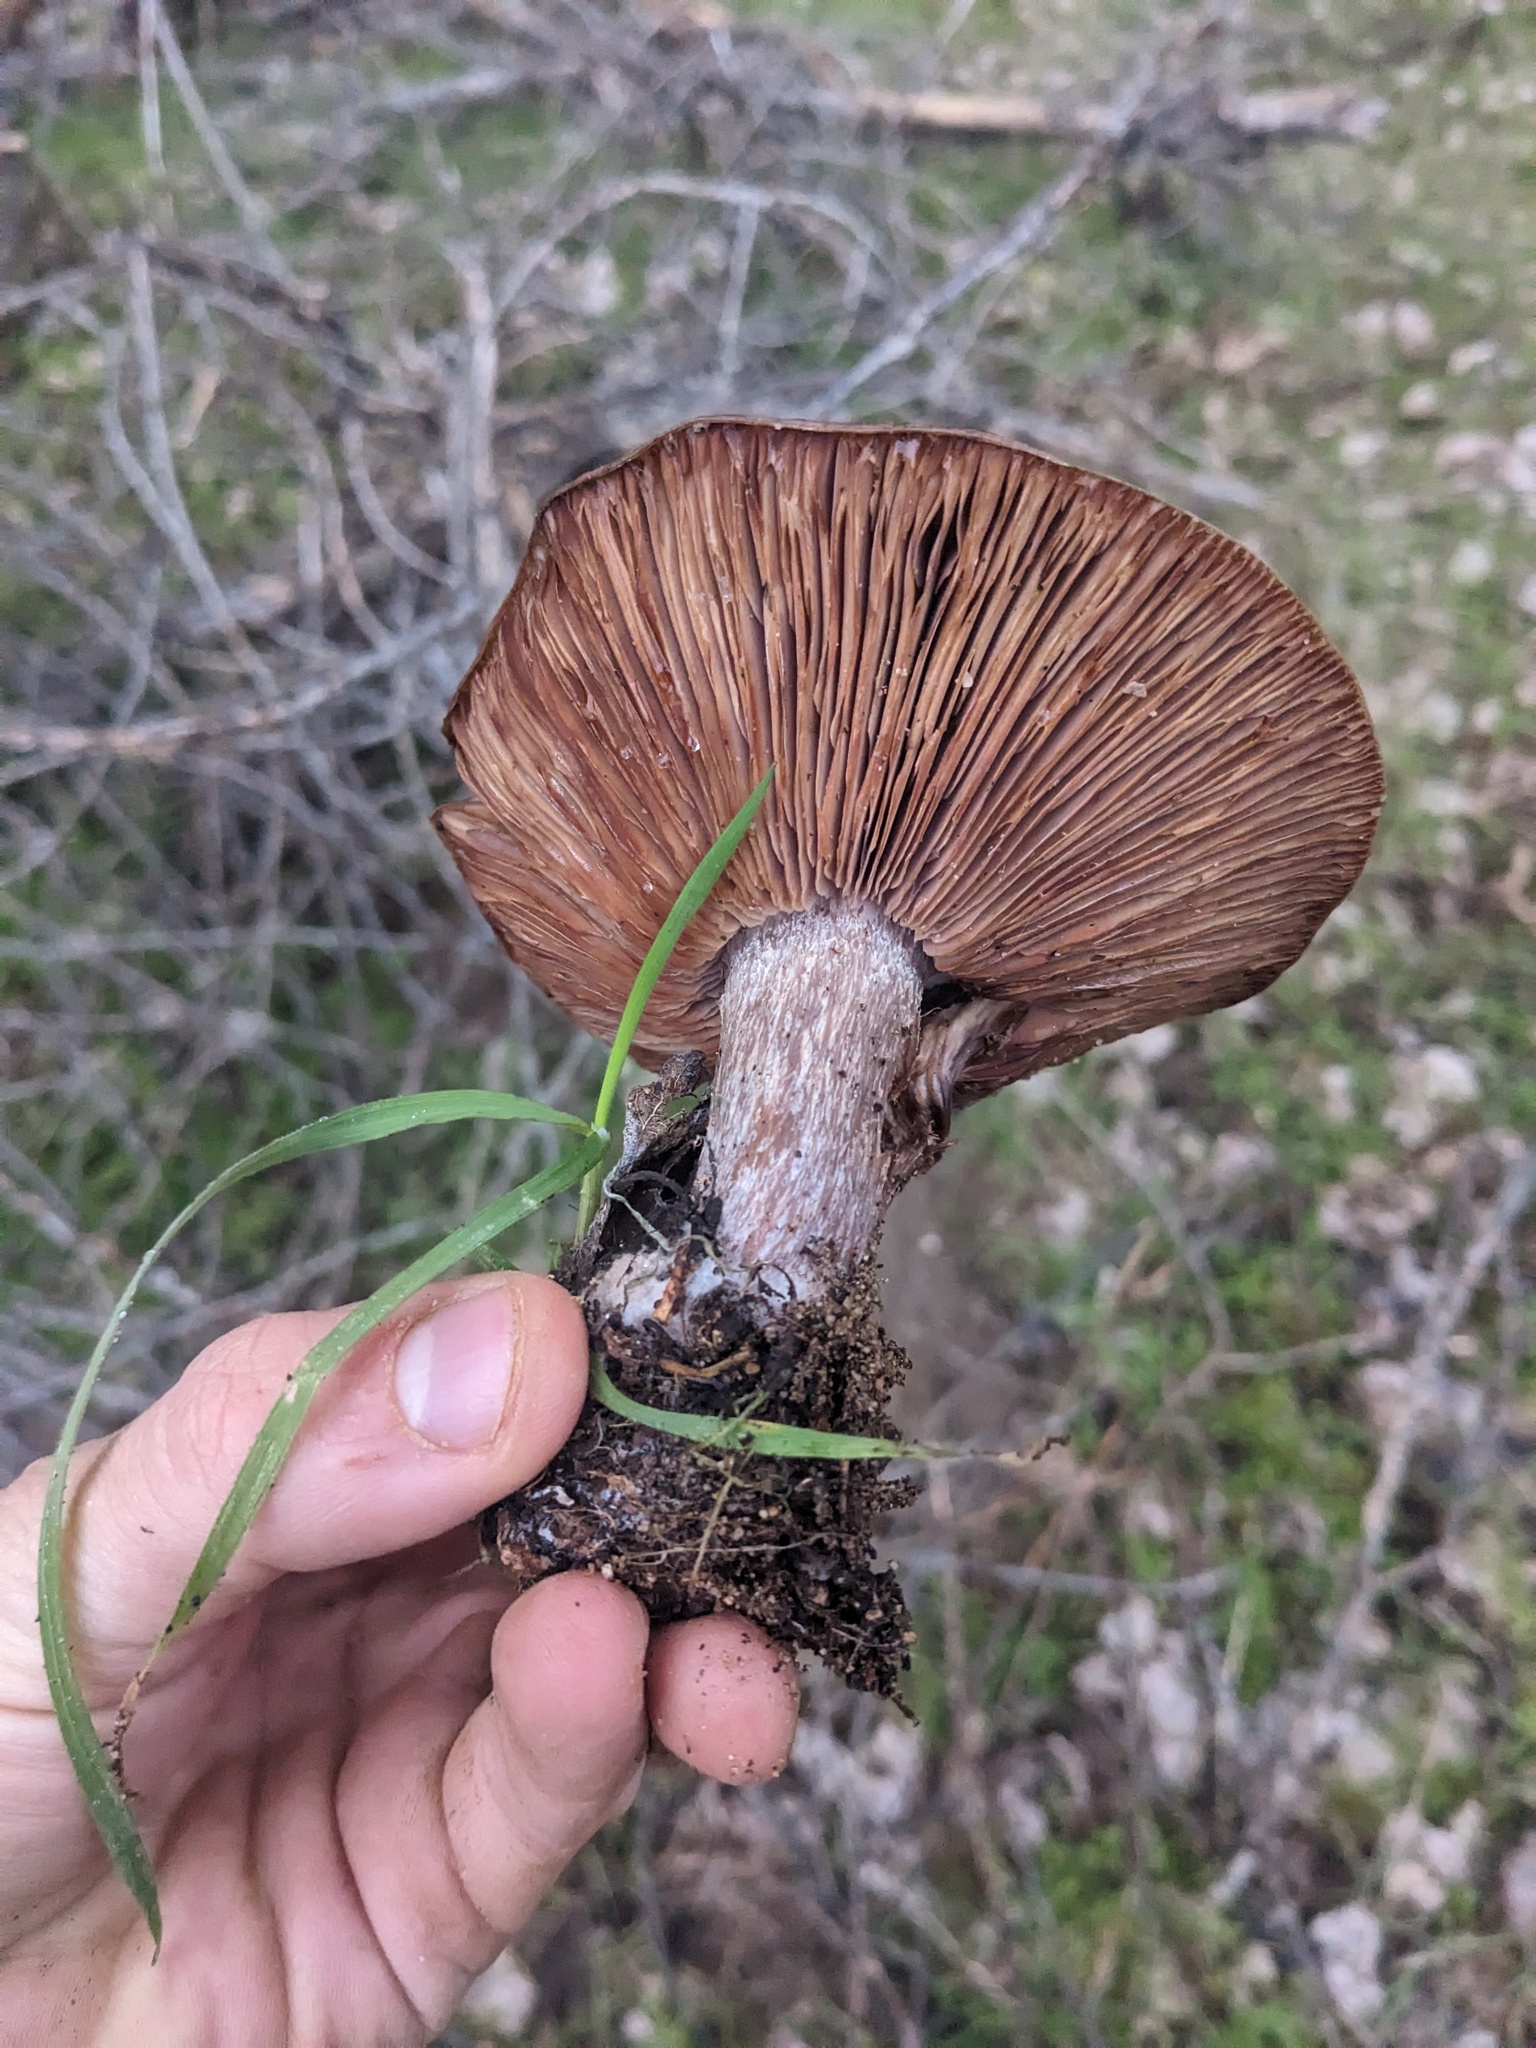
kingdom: Fungi
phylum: Basidiomycota
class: Agaricomycetes
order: Agaricales
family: Tricholomataceae
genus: Collybia
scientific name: Collybia
